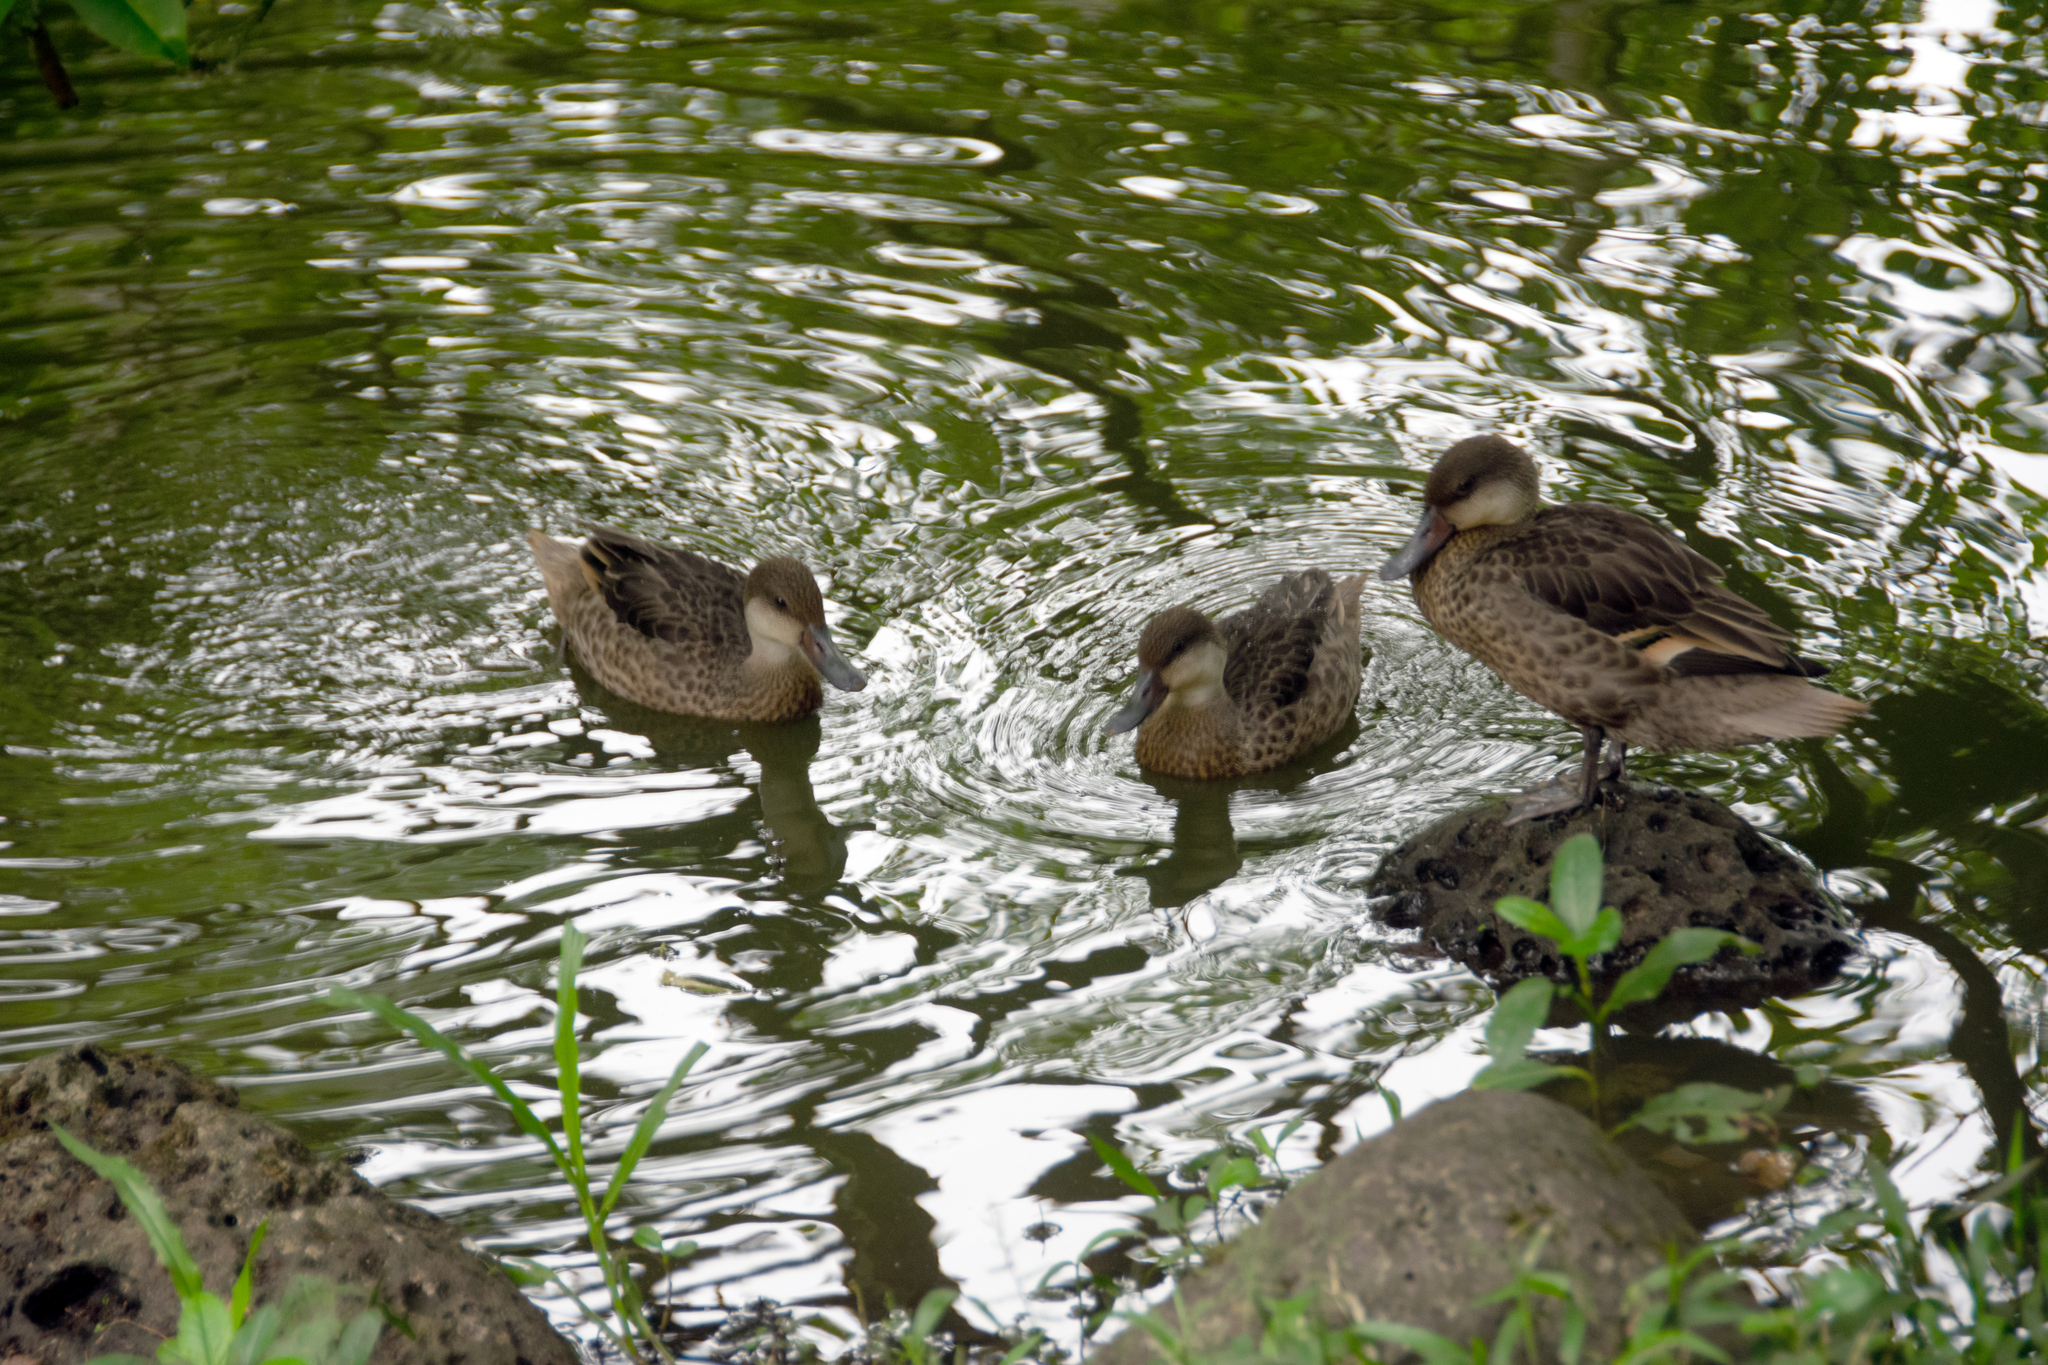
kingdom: Animalia
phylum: Chordata
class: Aves
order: Anseriformes
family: Anatidae
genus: Anas
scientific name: Anas bahamensis
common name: White-cheeked pintail
